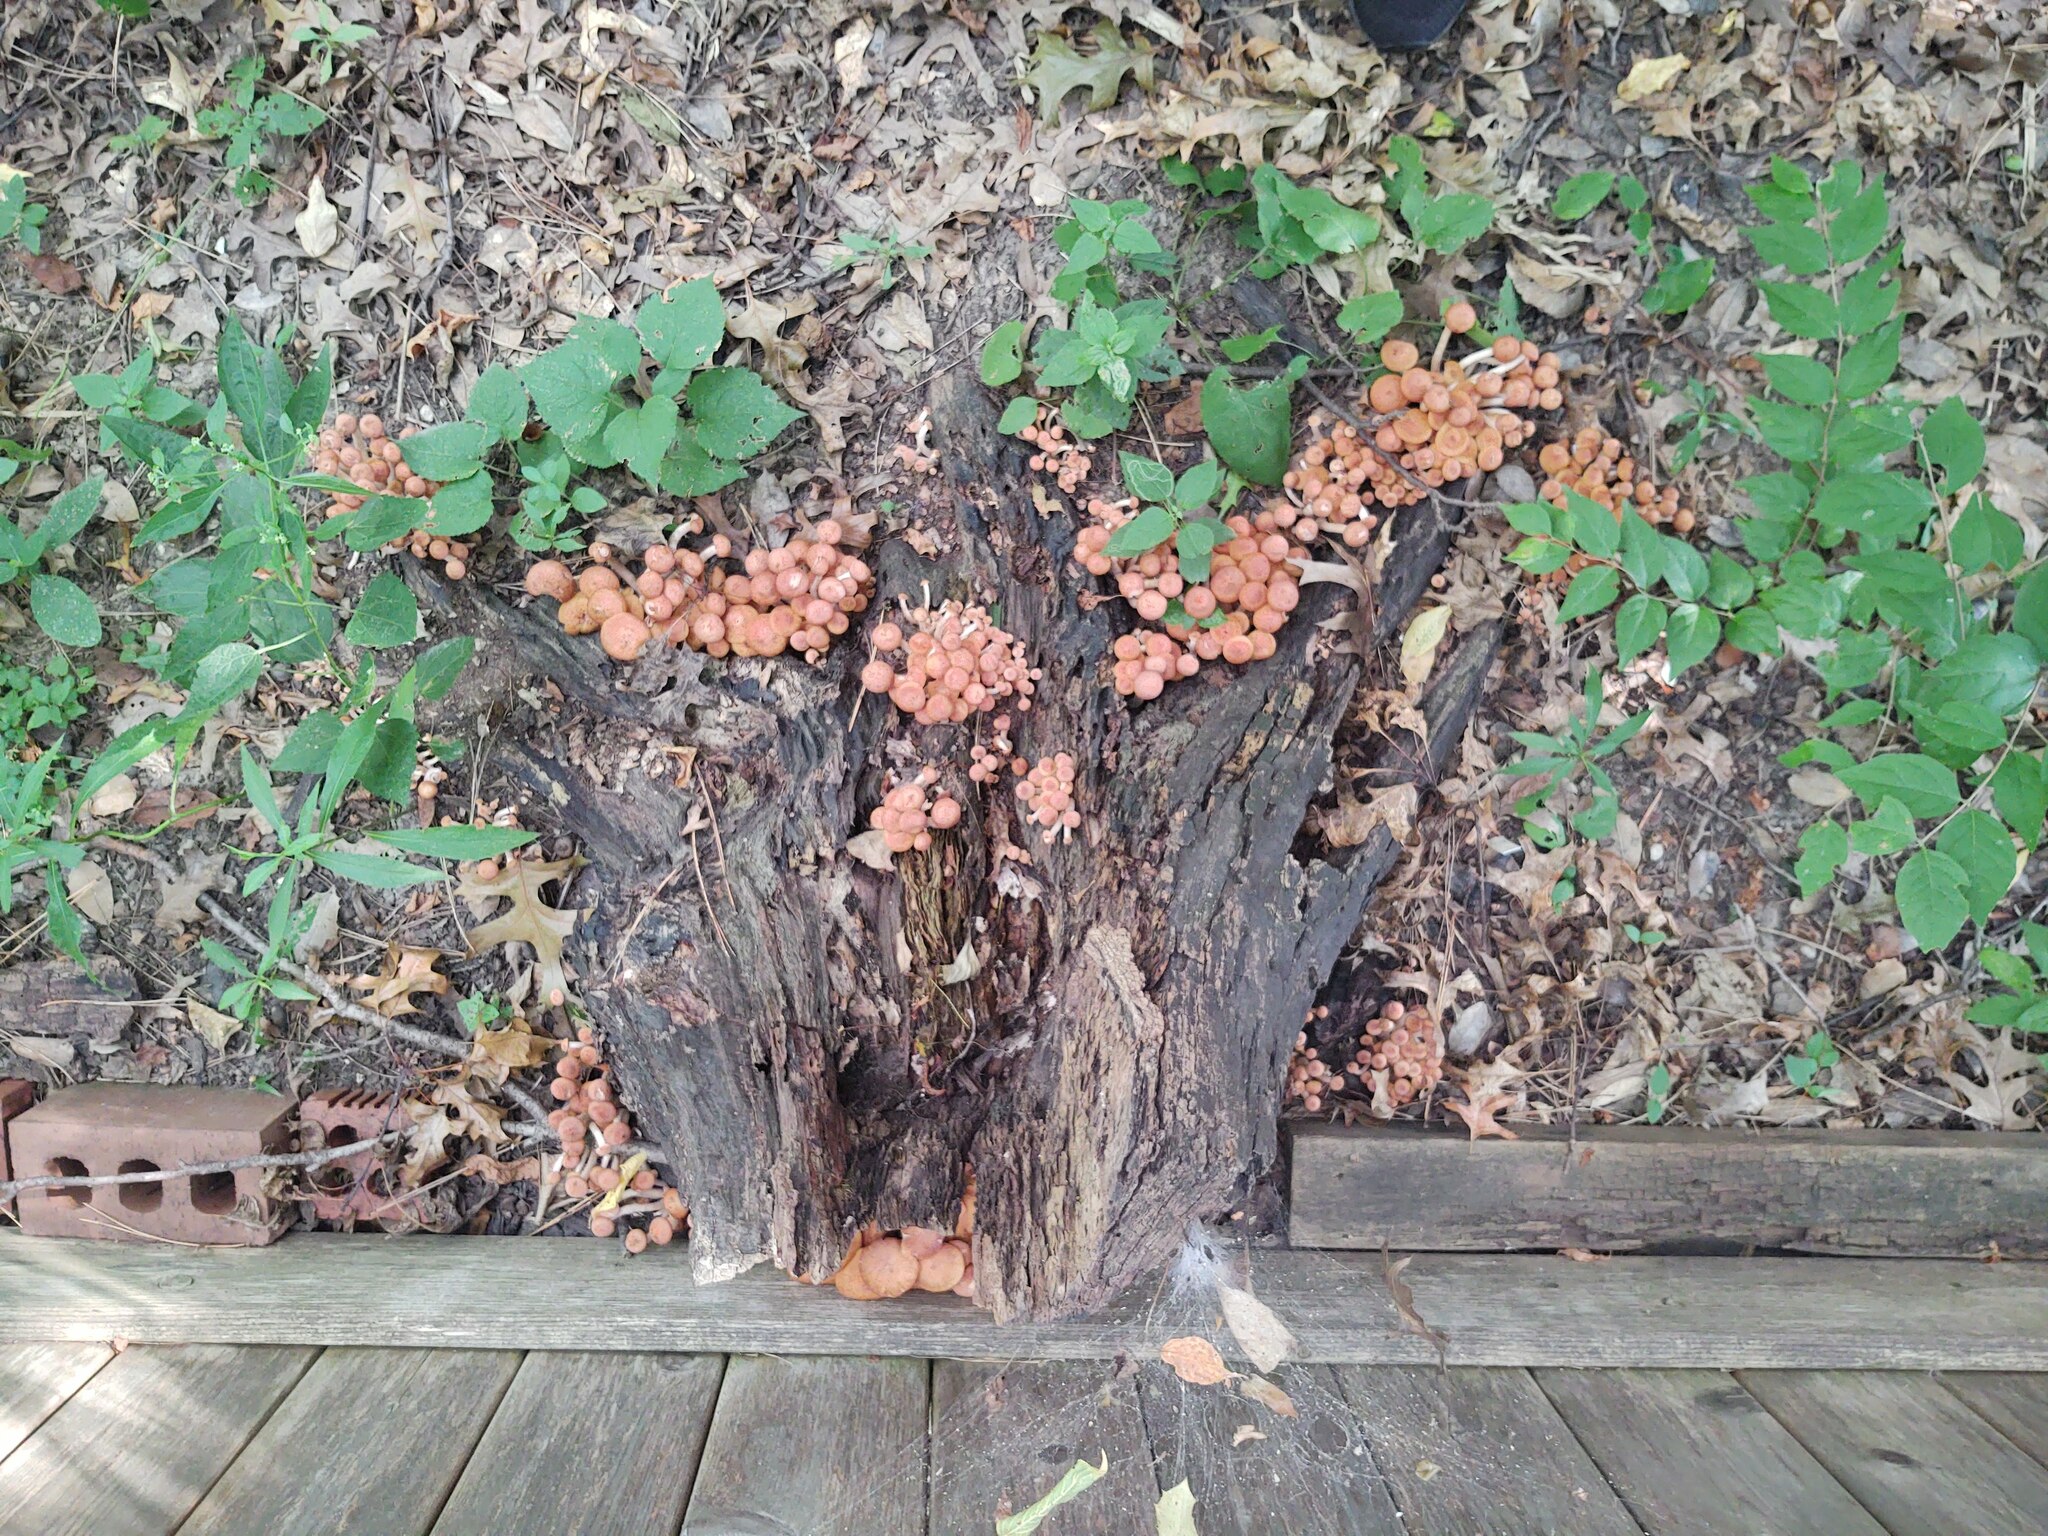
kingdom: Fungi
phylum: Basidiomycota
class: Agaricomycetes
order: Agaricales
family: Physalacriaceae
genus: Desarmillaria
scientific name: Desarmillaria caespitosa
